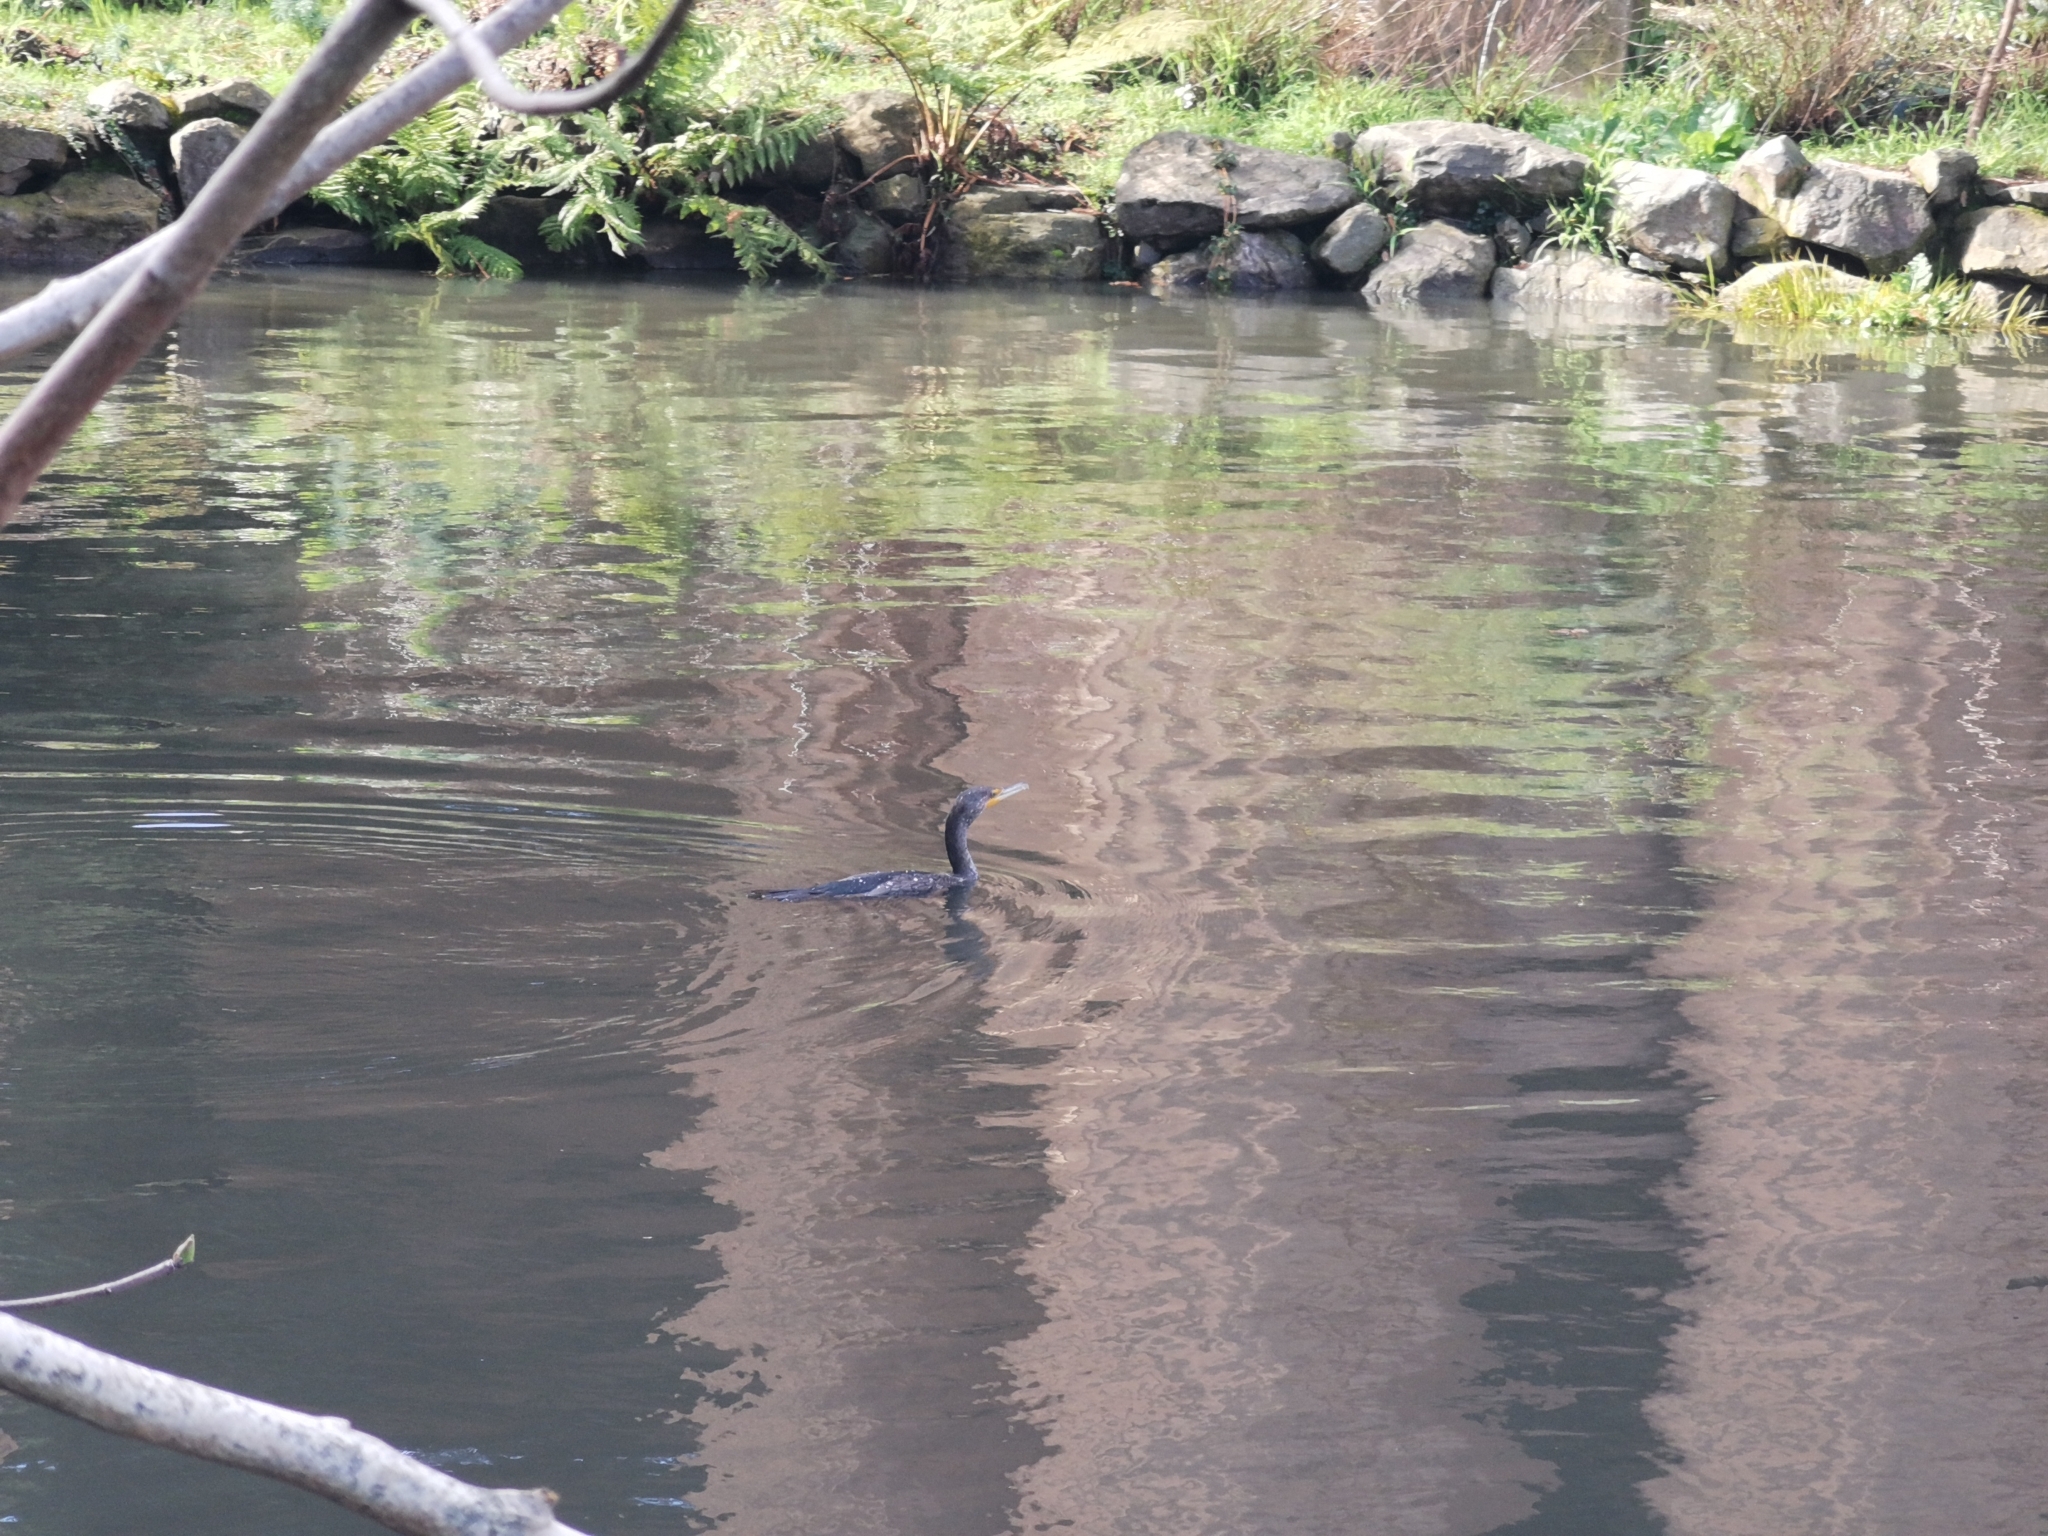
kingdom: Animalia
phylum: Chordata
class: Aves
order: Suliformes
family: Phalacrocoracidae
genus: Phalacrocorax
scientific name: Phalacrocorax auritus
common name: Double-crested cormorant
